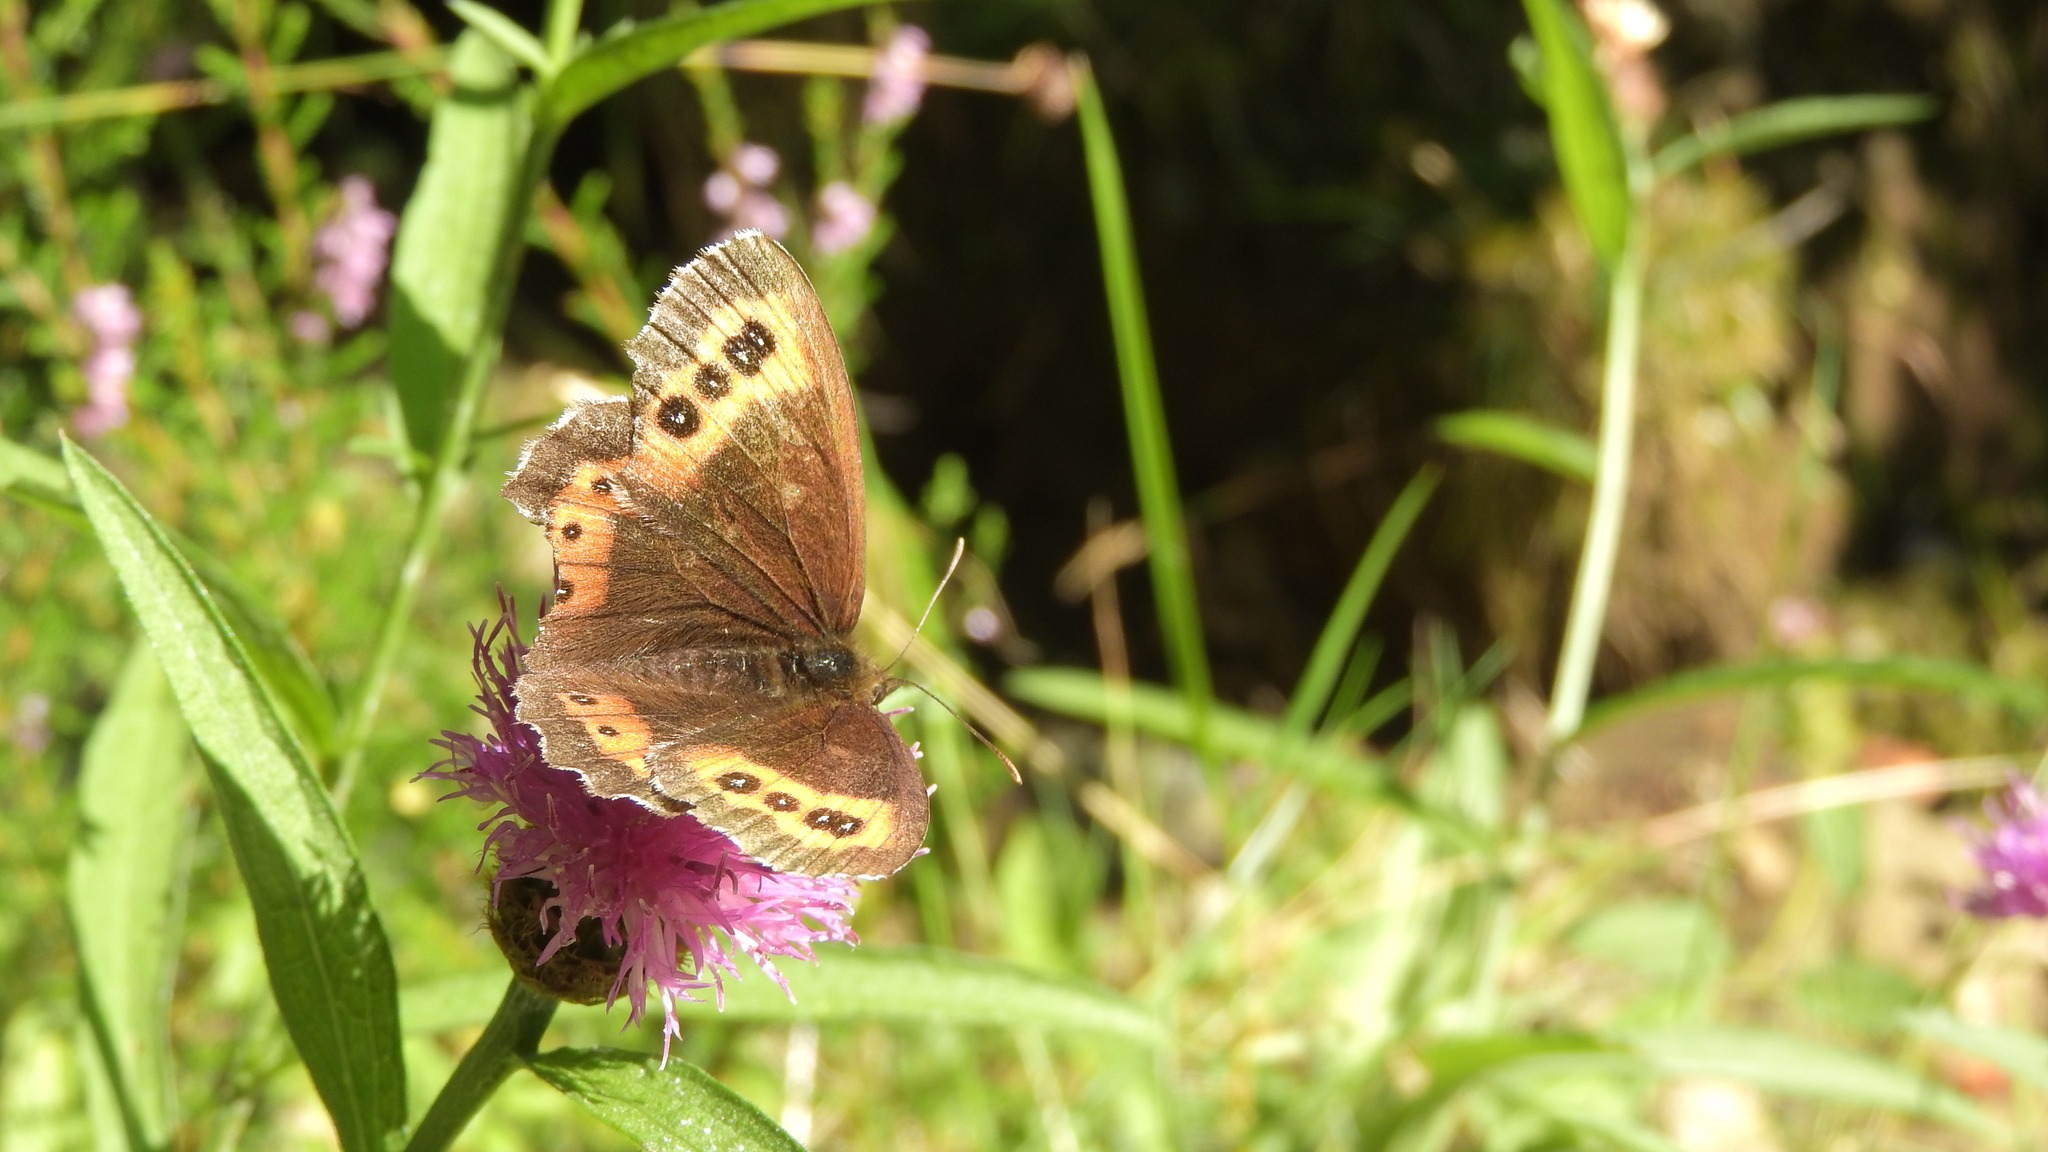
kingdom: Animalia
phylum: Arthropoda
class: Insecta
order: Lepidoptera
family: Nymphalidae
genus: Erebia
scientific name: Erebia ligea
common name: Arran brown
